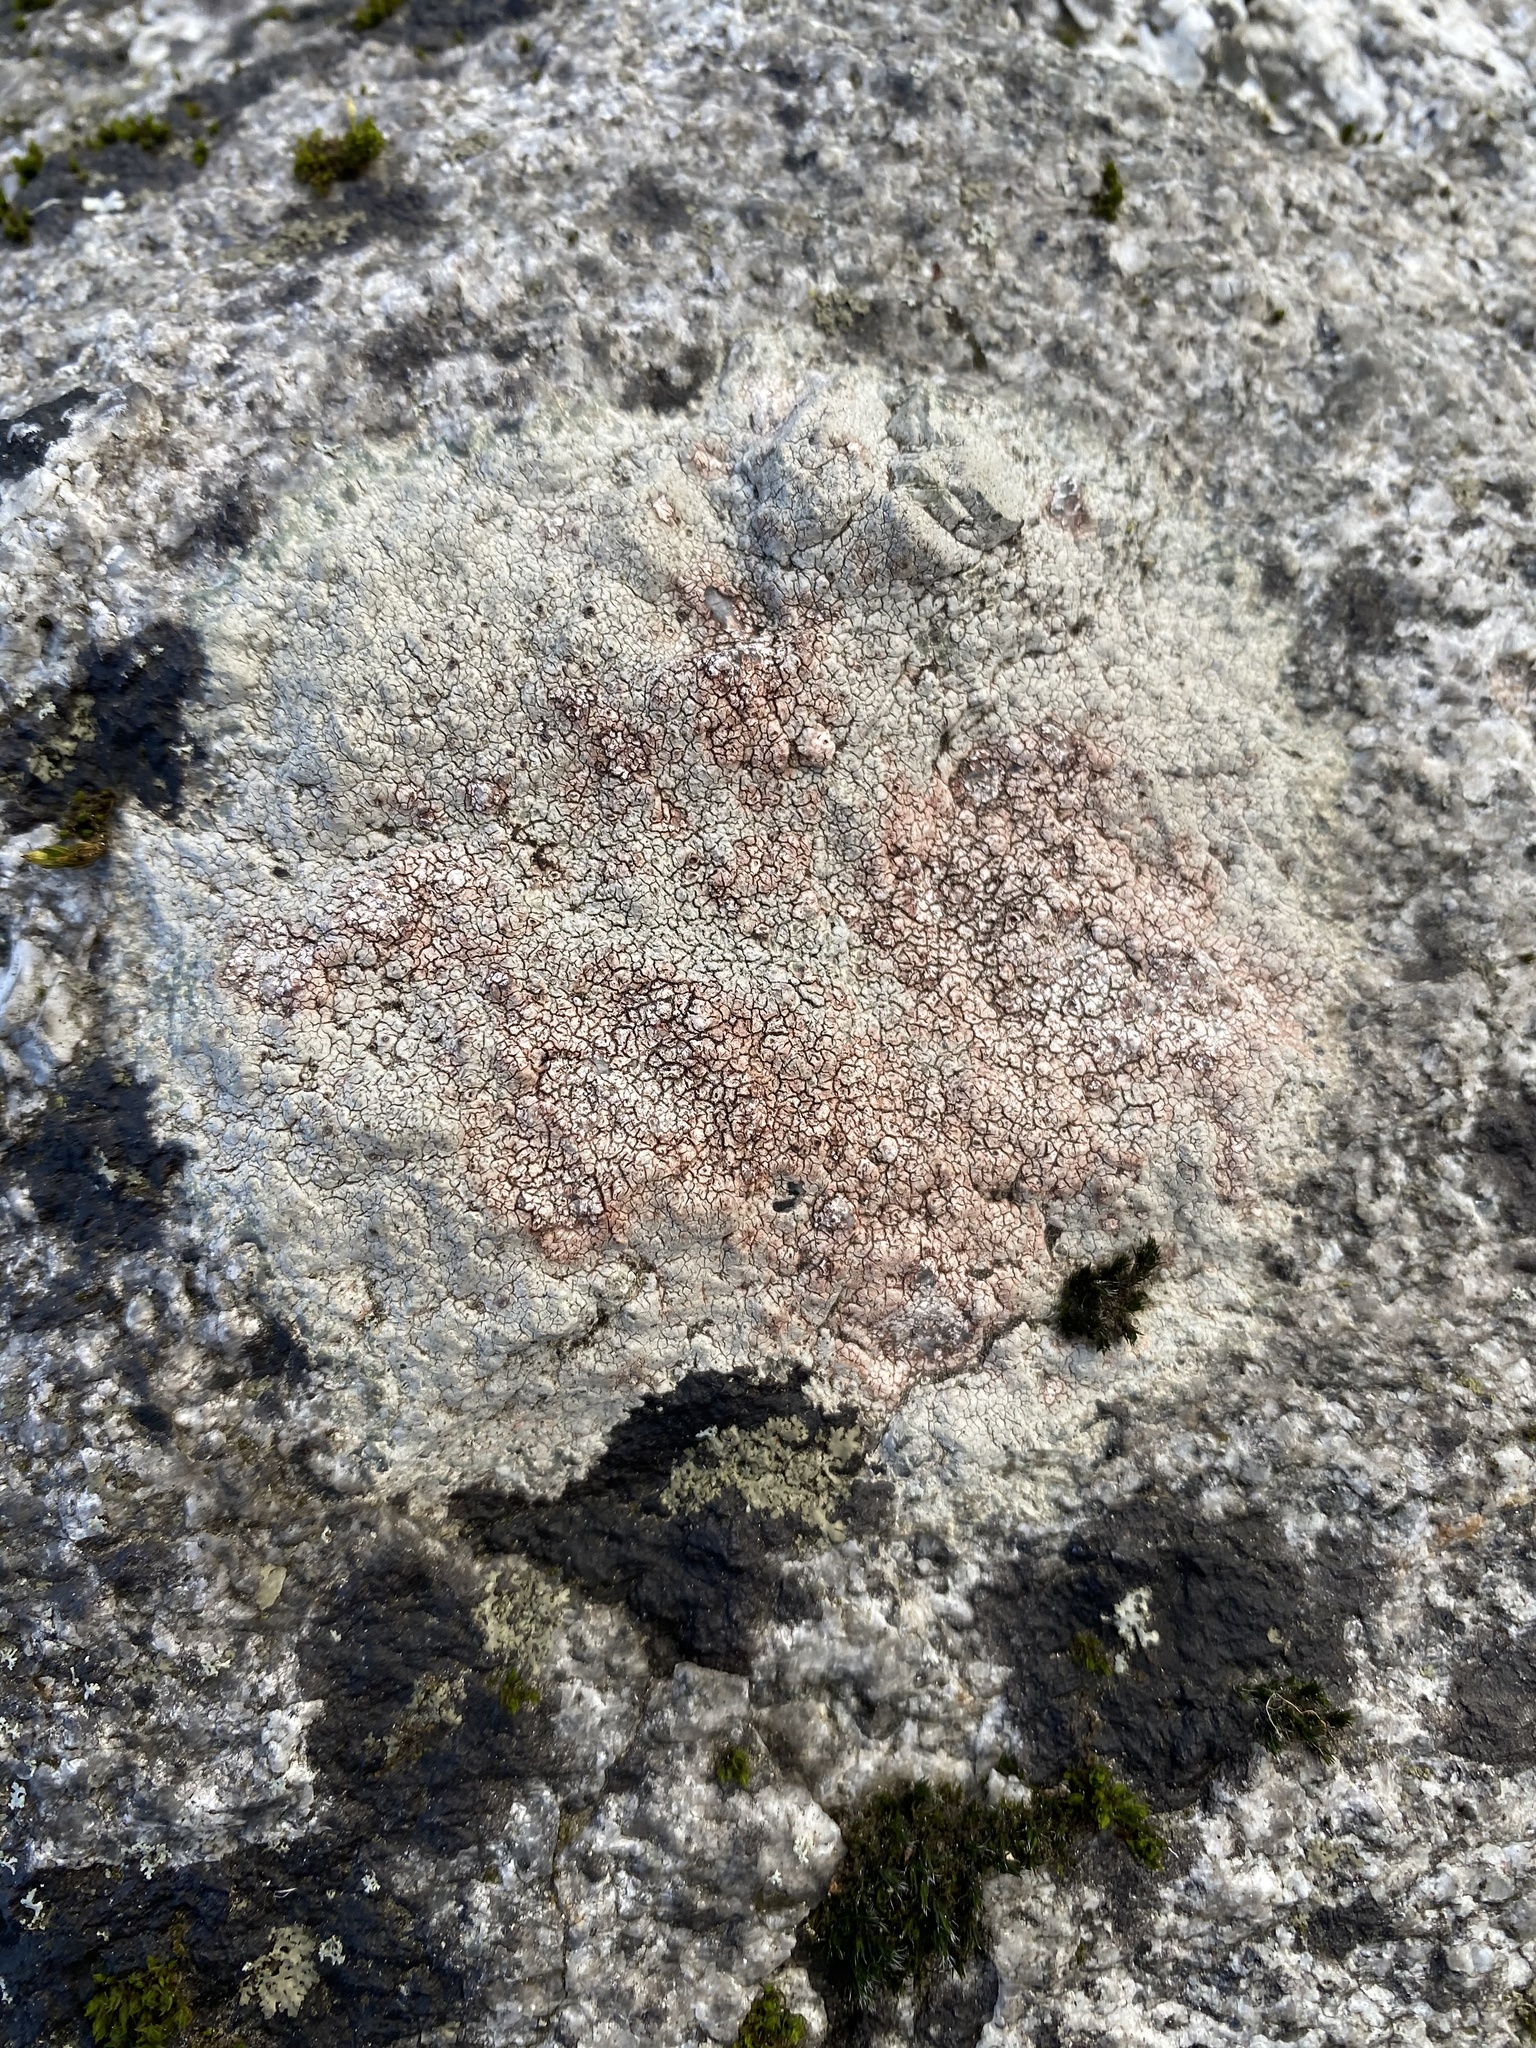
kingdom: Fungi
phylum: Ascomycota
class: Lecanoromycetes
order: Pertusariales
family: Megasporaceae
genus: Aspicilia
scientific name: Aspicilia cinerea
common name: Cinder lichen
